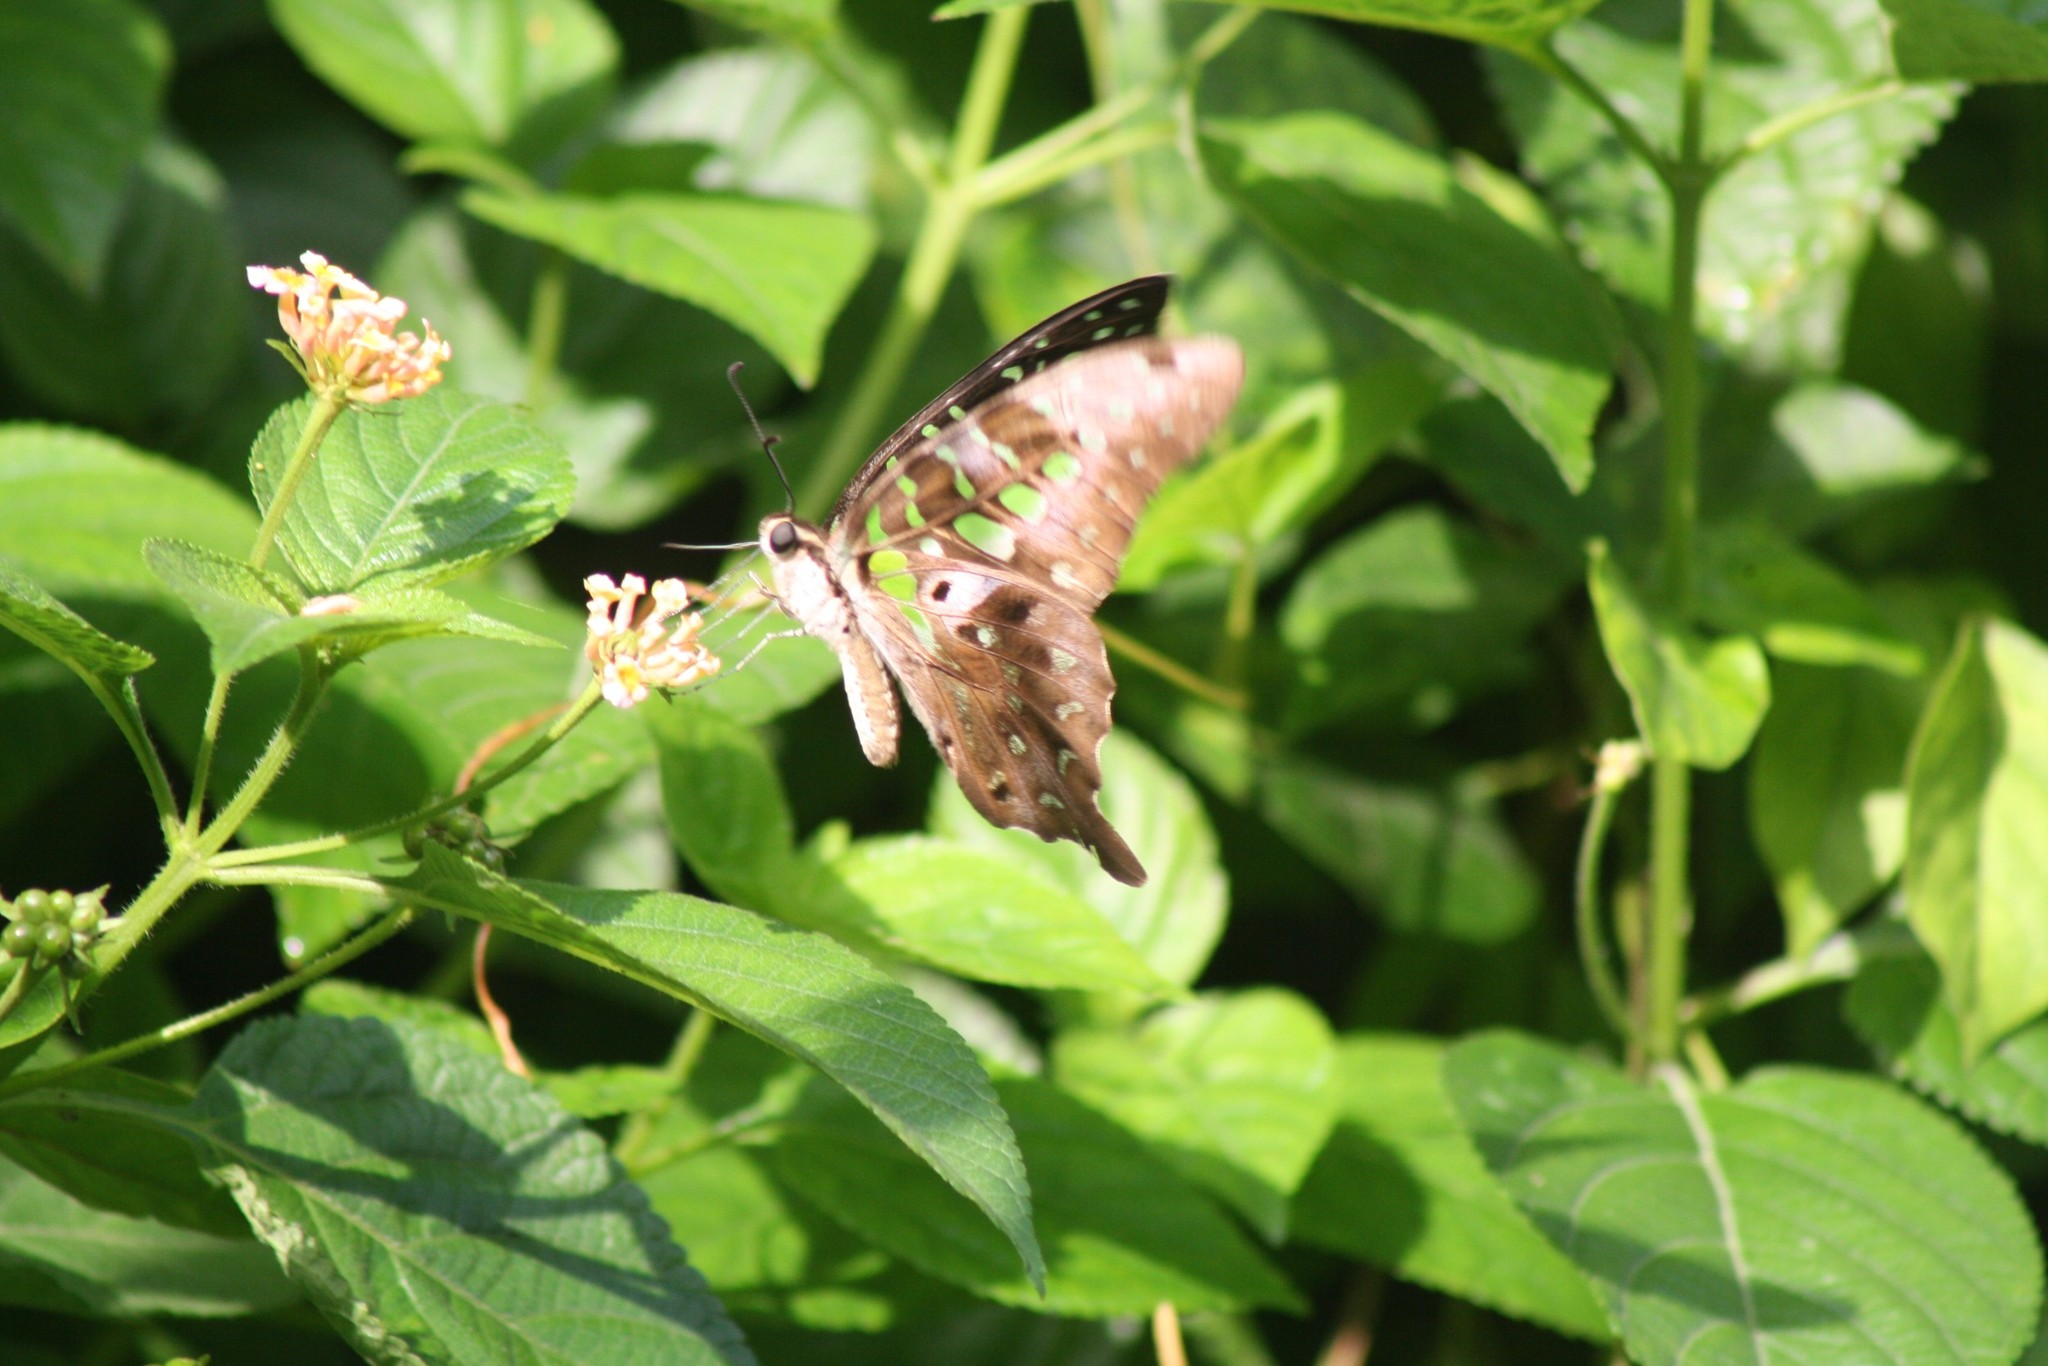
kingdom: Animalia
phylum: Arthropoda
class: Insecta
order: Lepidoptera
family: Papilionidae
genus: Graphium
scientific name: Graphium agamemnon
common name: Tailed jay
